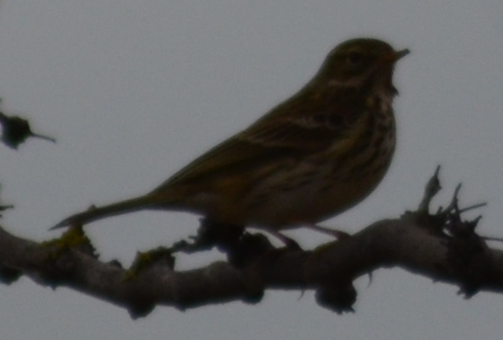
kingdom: Animalia
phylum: Chordata
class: Aves
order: Passeriformes
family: Motacillidae
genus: Anthus
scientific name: Anthus pratensis
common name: Meadow pipit
